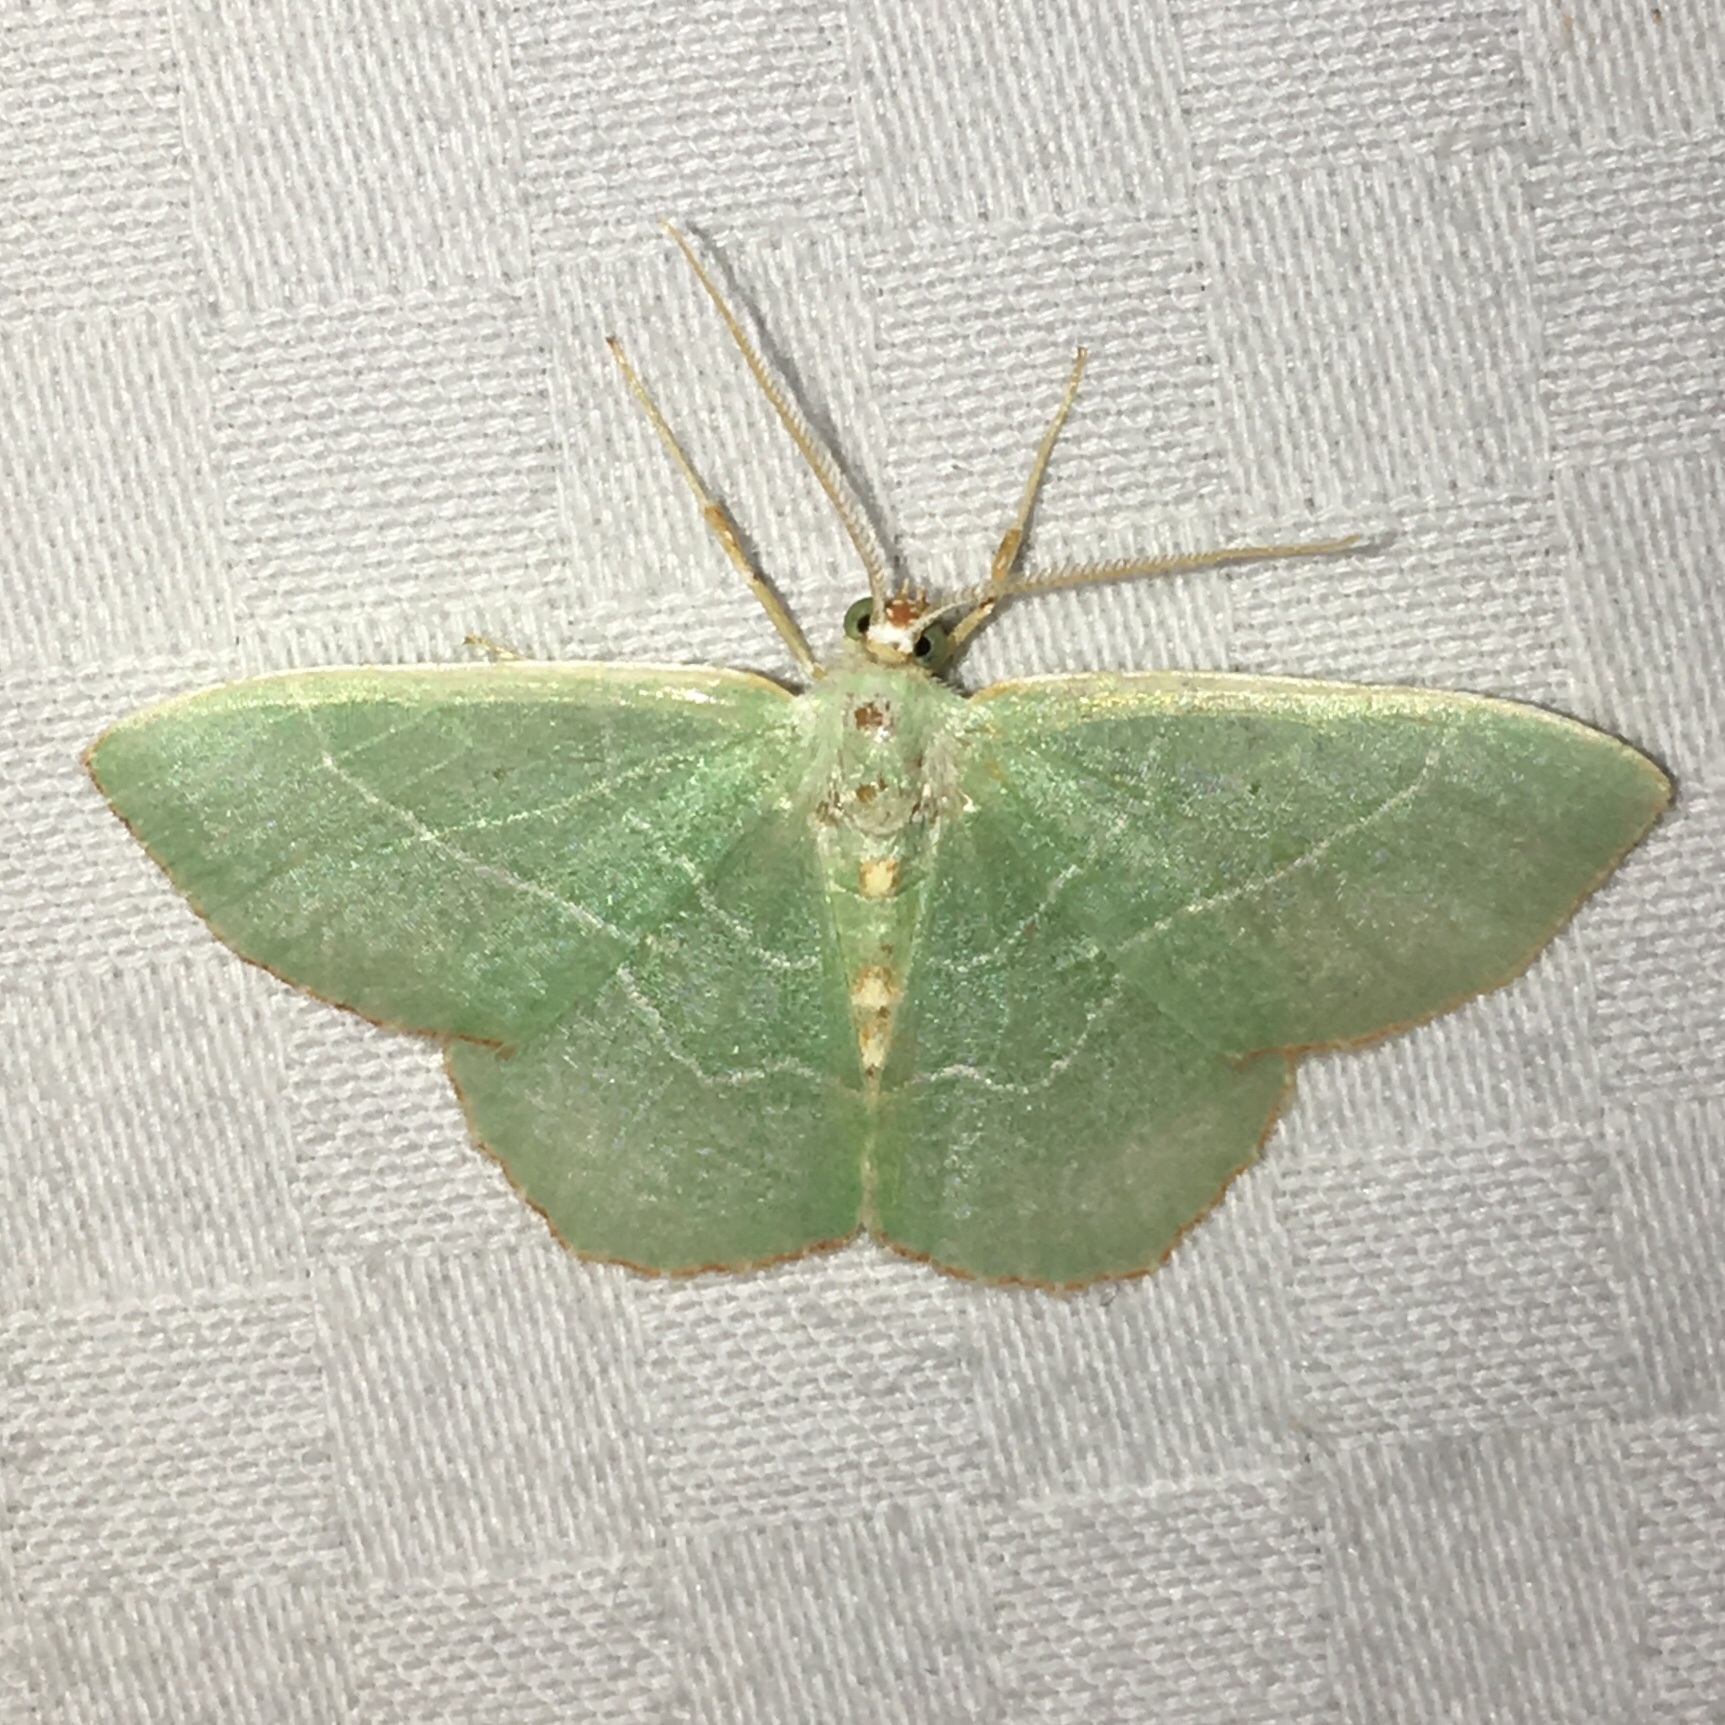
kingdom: Animalia
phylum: Arthropoda
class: Insecta
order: Lepidoptera
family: Geometridae
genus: Nemoria
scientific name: Nemoria bistriaria
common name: Red-fringed emerald
